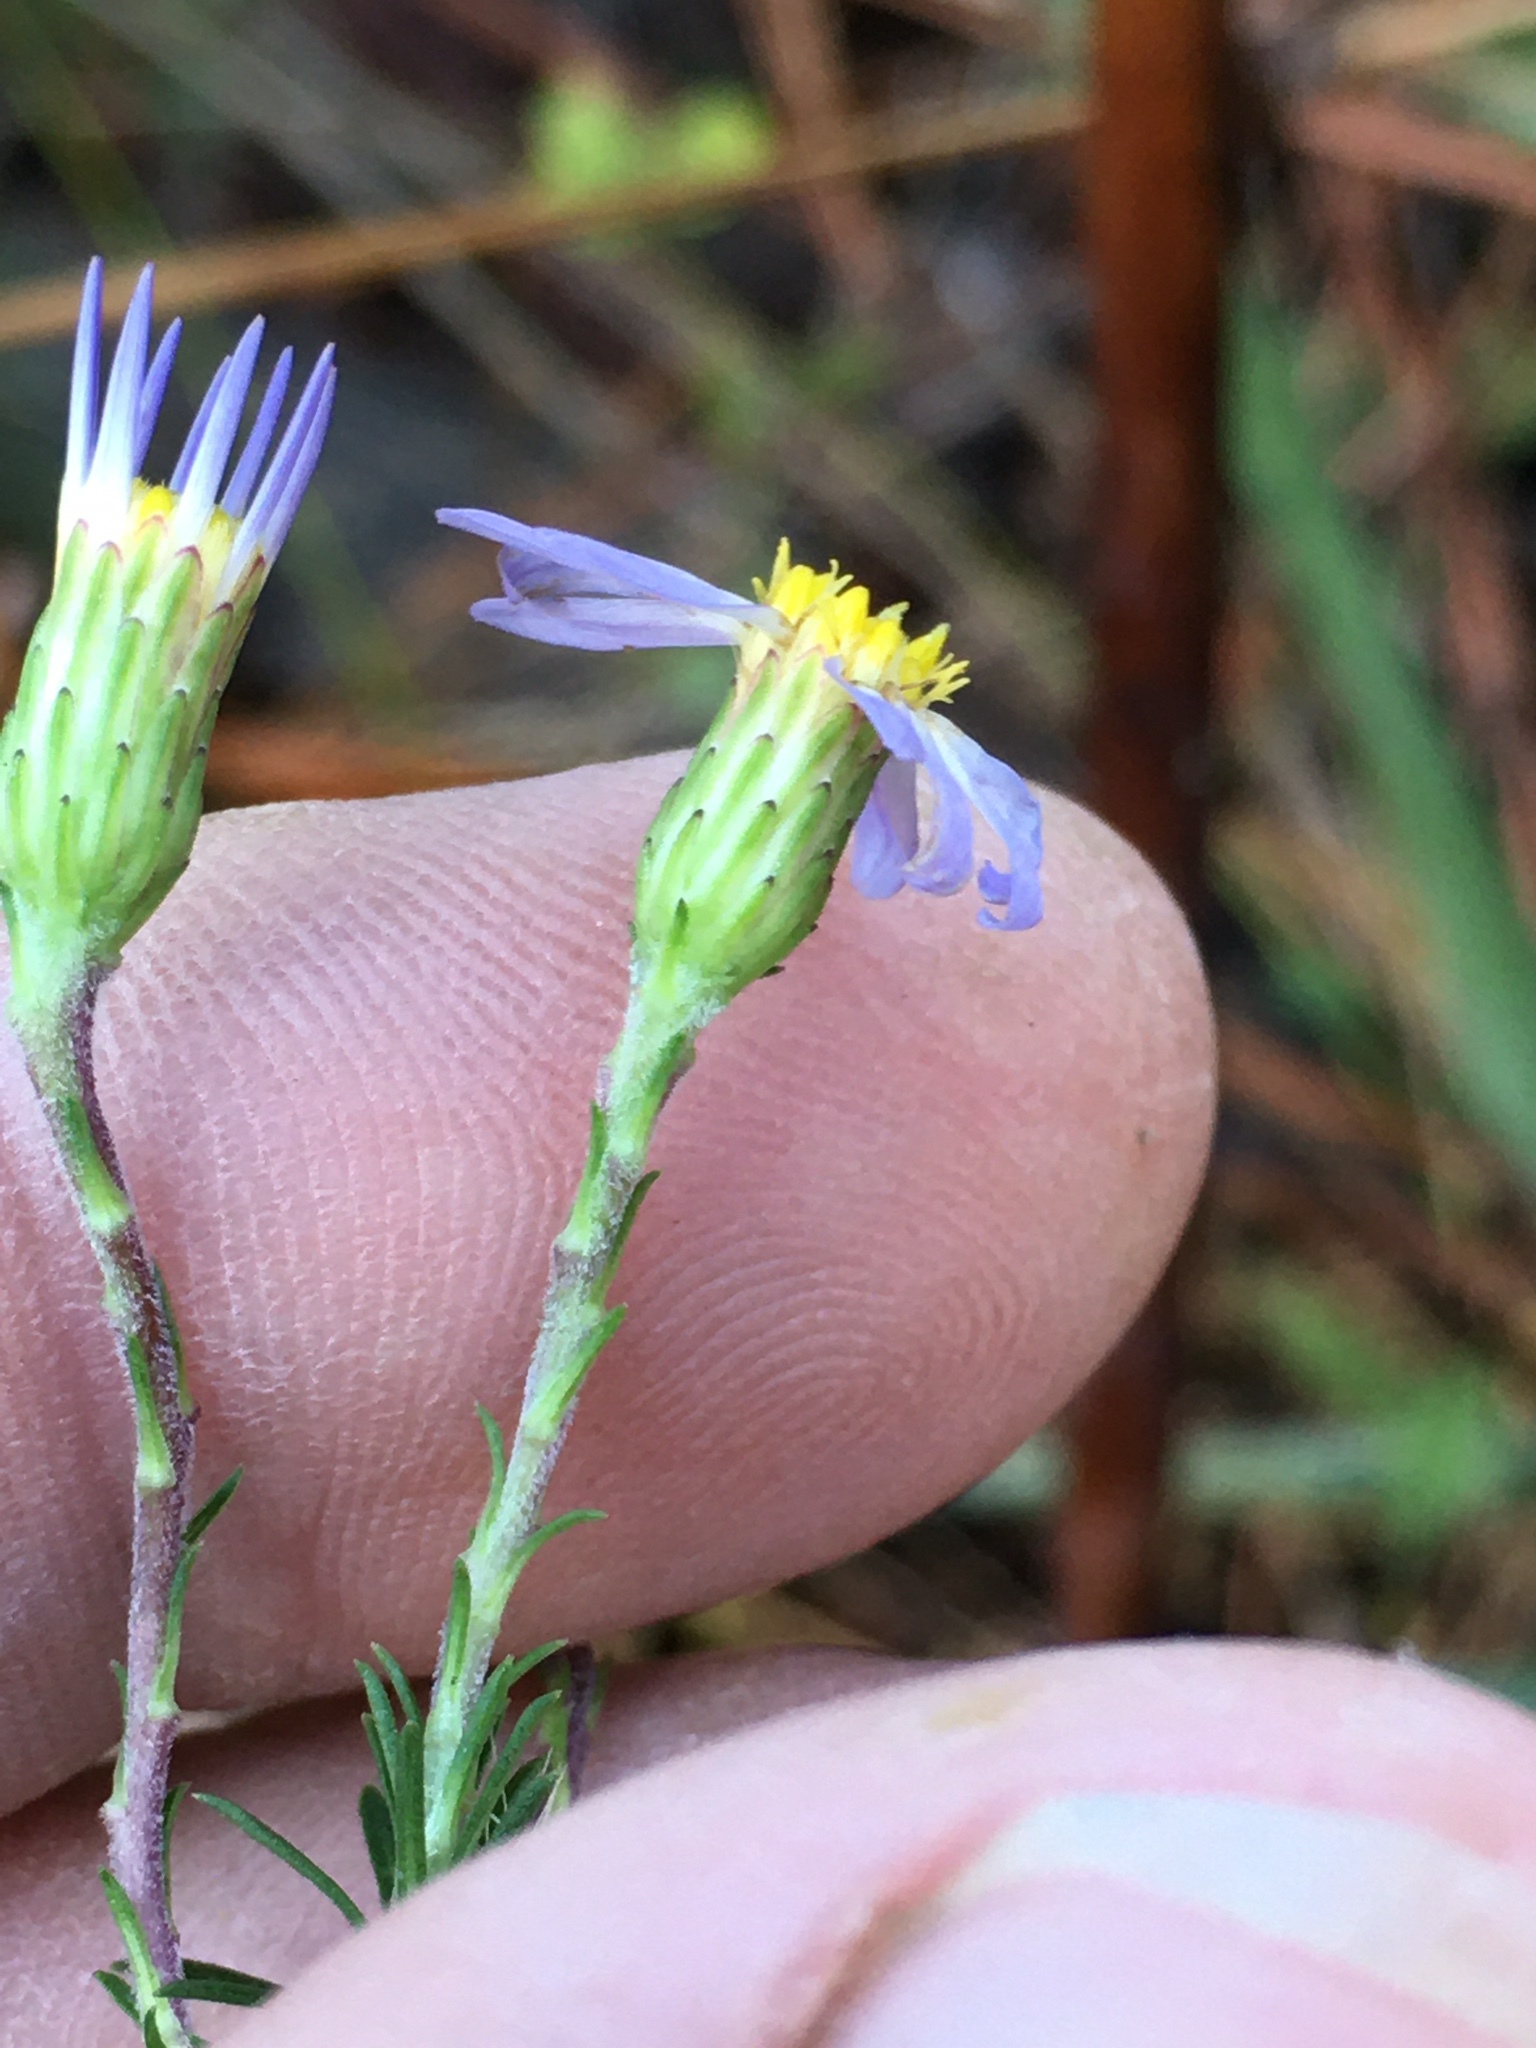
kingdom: Plantae
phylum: Tracheophyta
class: Magnoliopsida
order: Asterales
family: Asteraceae
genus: Ionactis
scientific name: Ionactis linariifolia
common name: Flax-leaf aster
